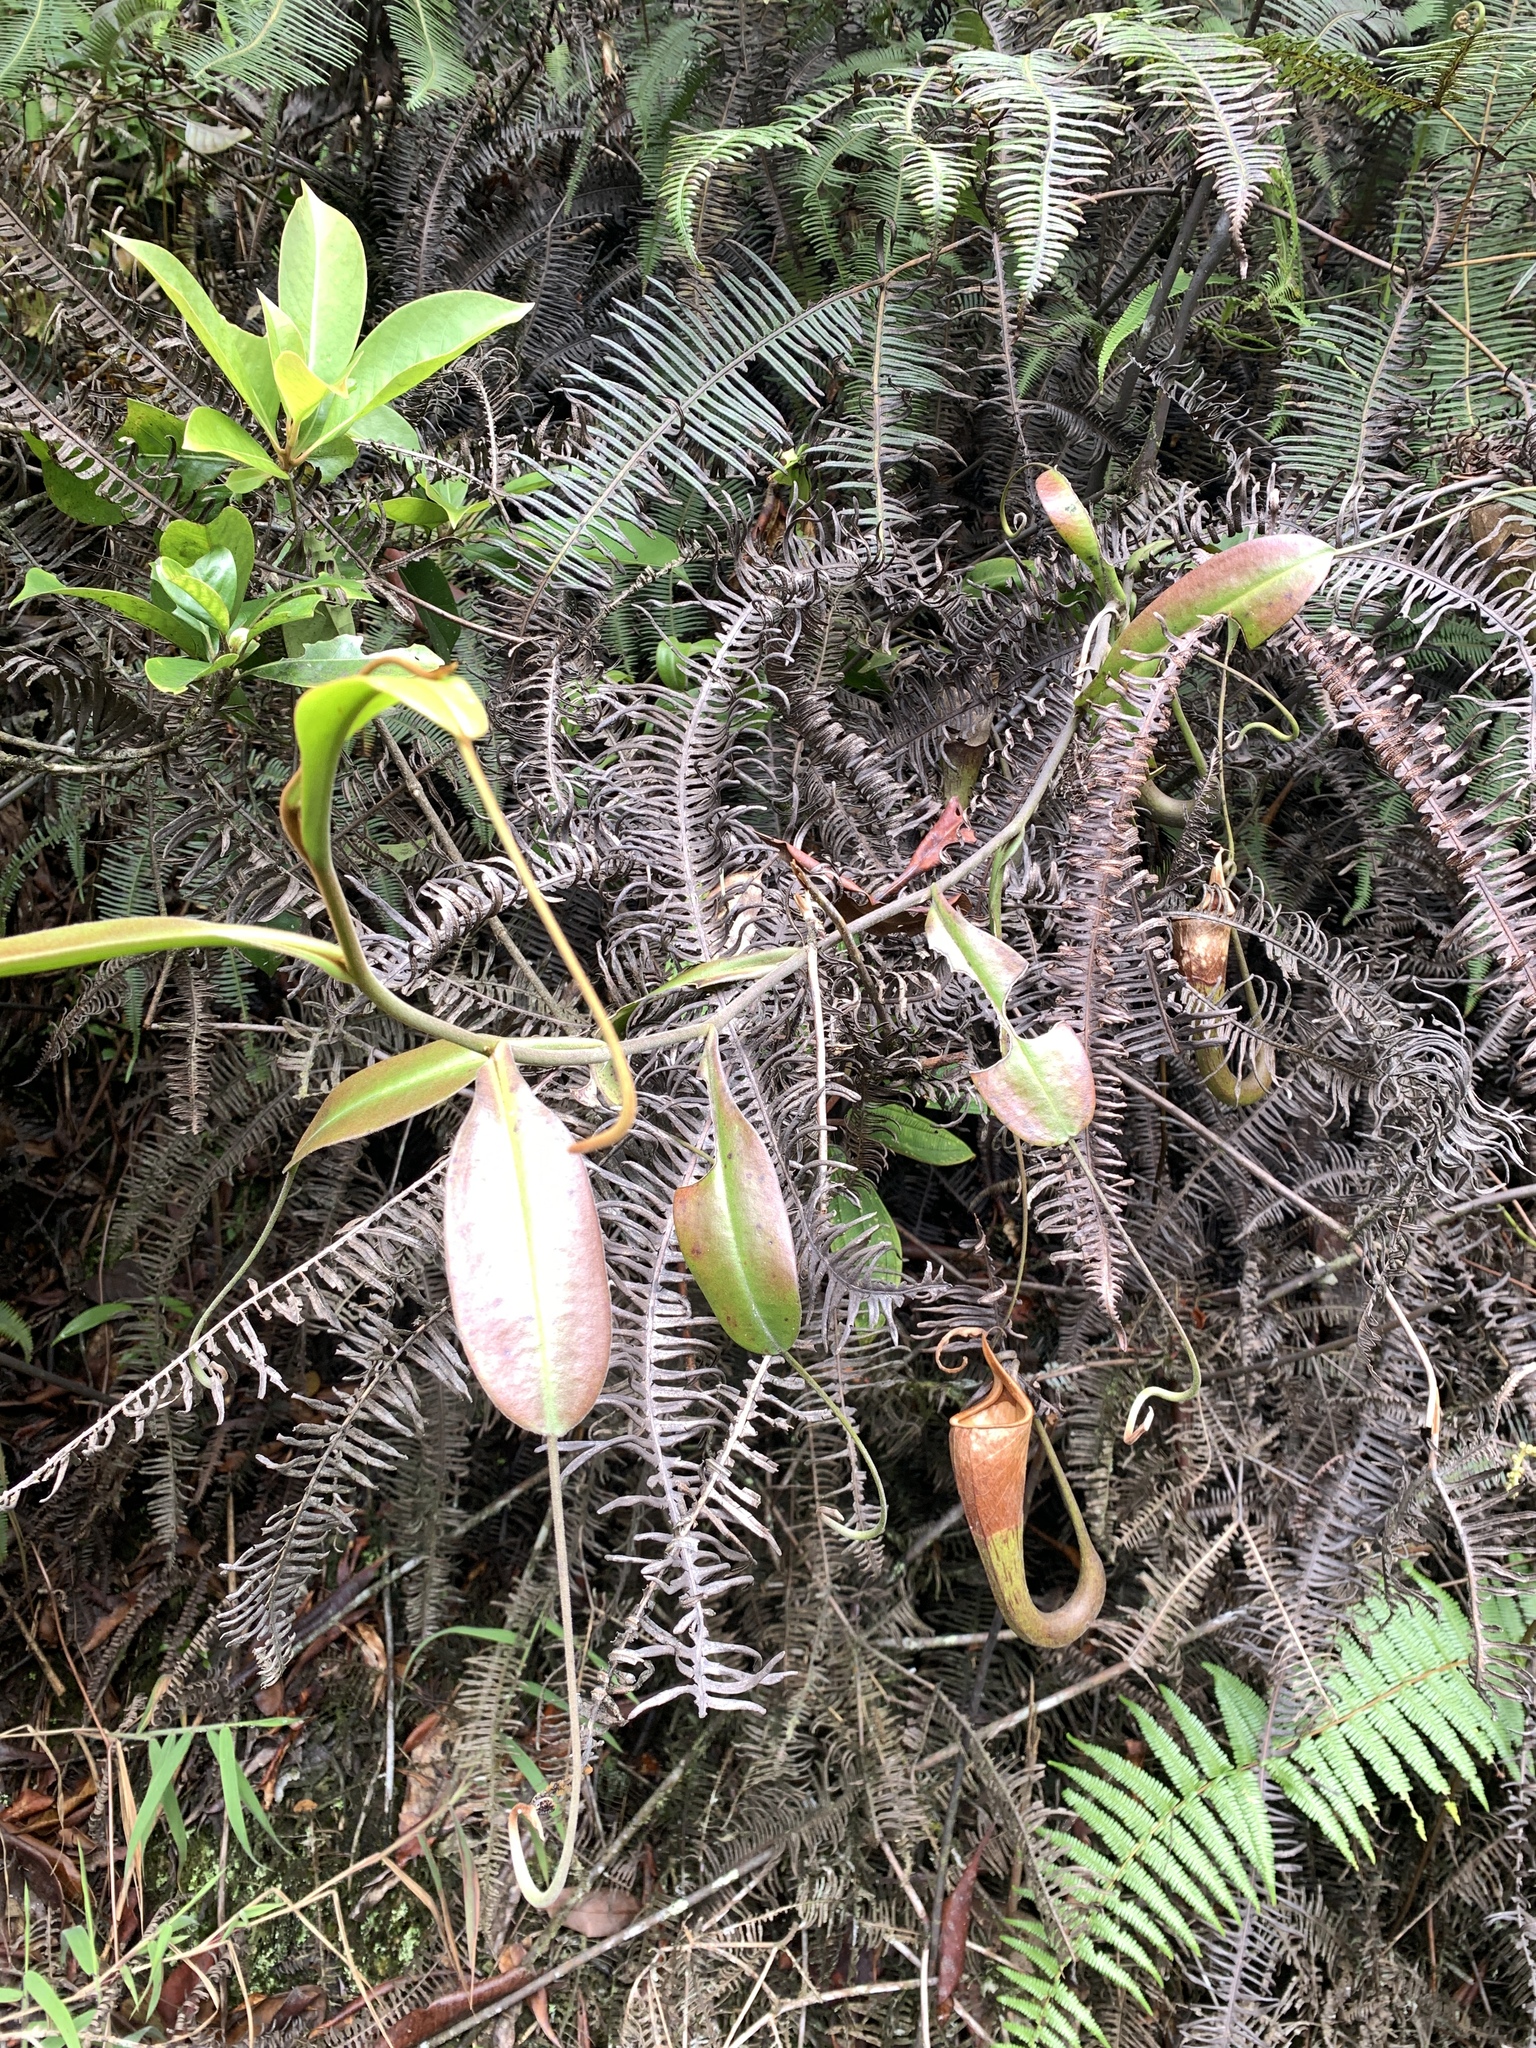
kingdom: Plantae
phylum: Tracheophyta
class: Magnoliopsida
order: Caryophyllales
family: Nepenthaceae
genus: Nepenthes
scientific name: Nepenthes fusca
